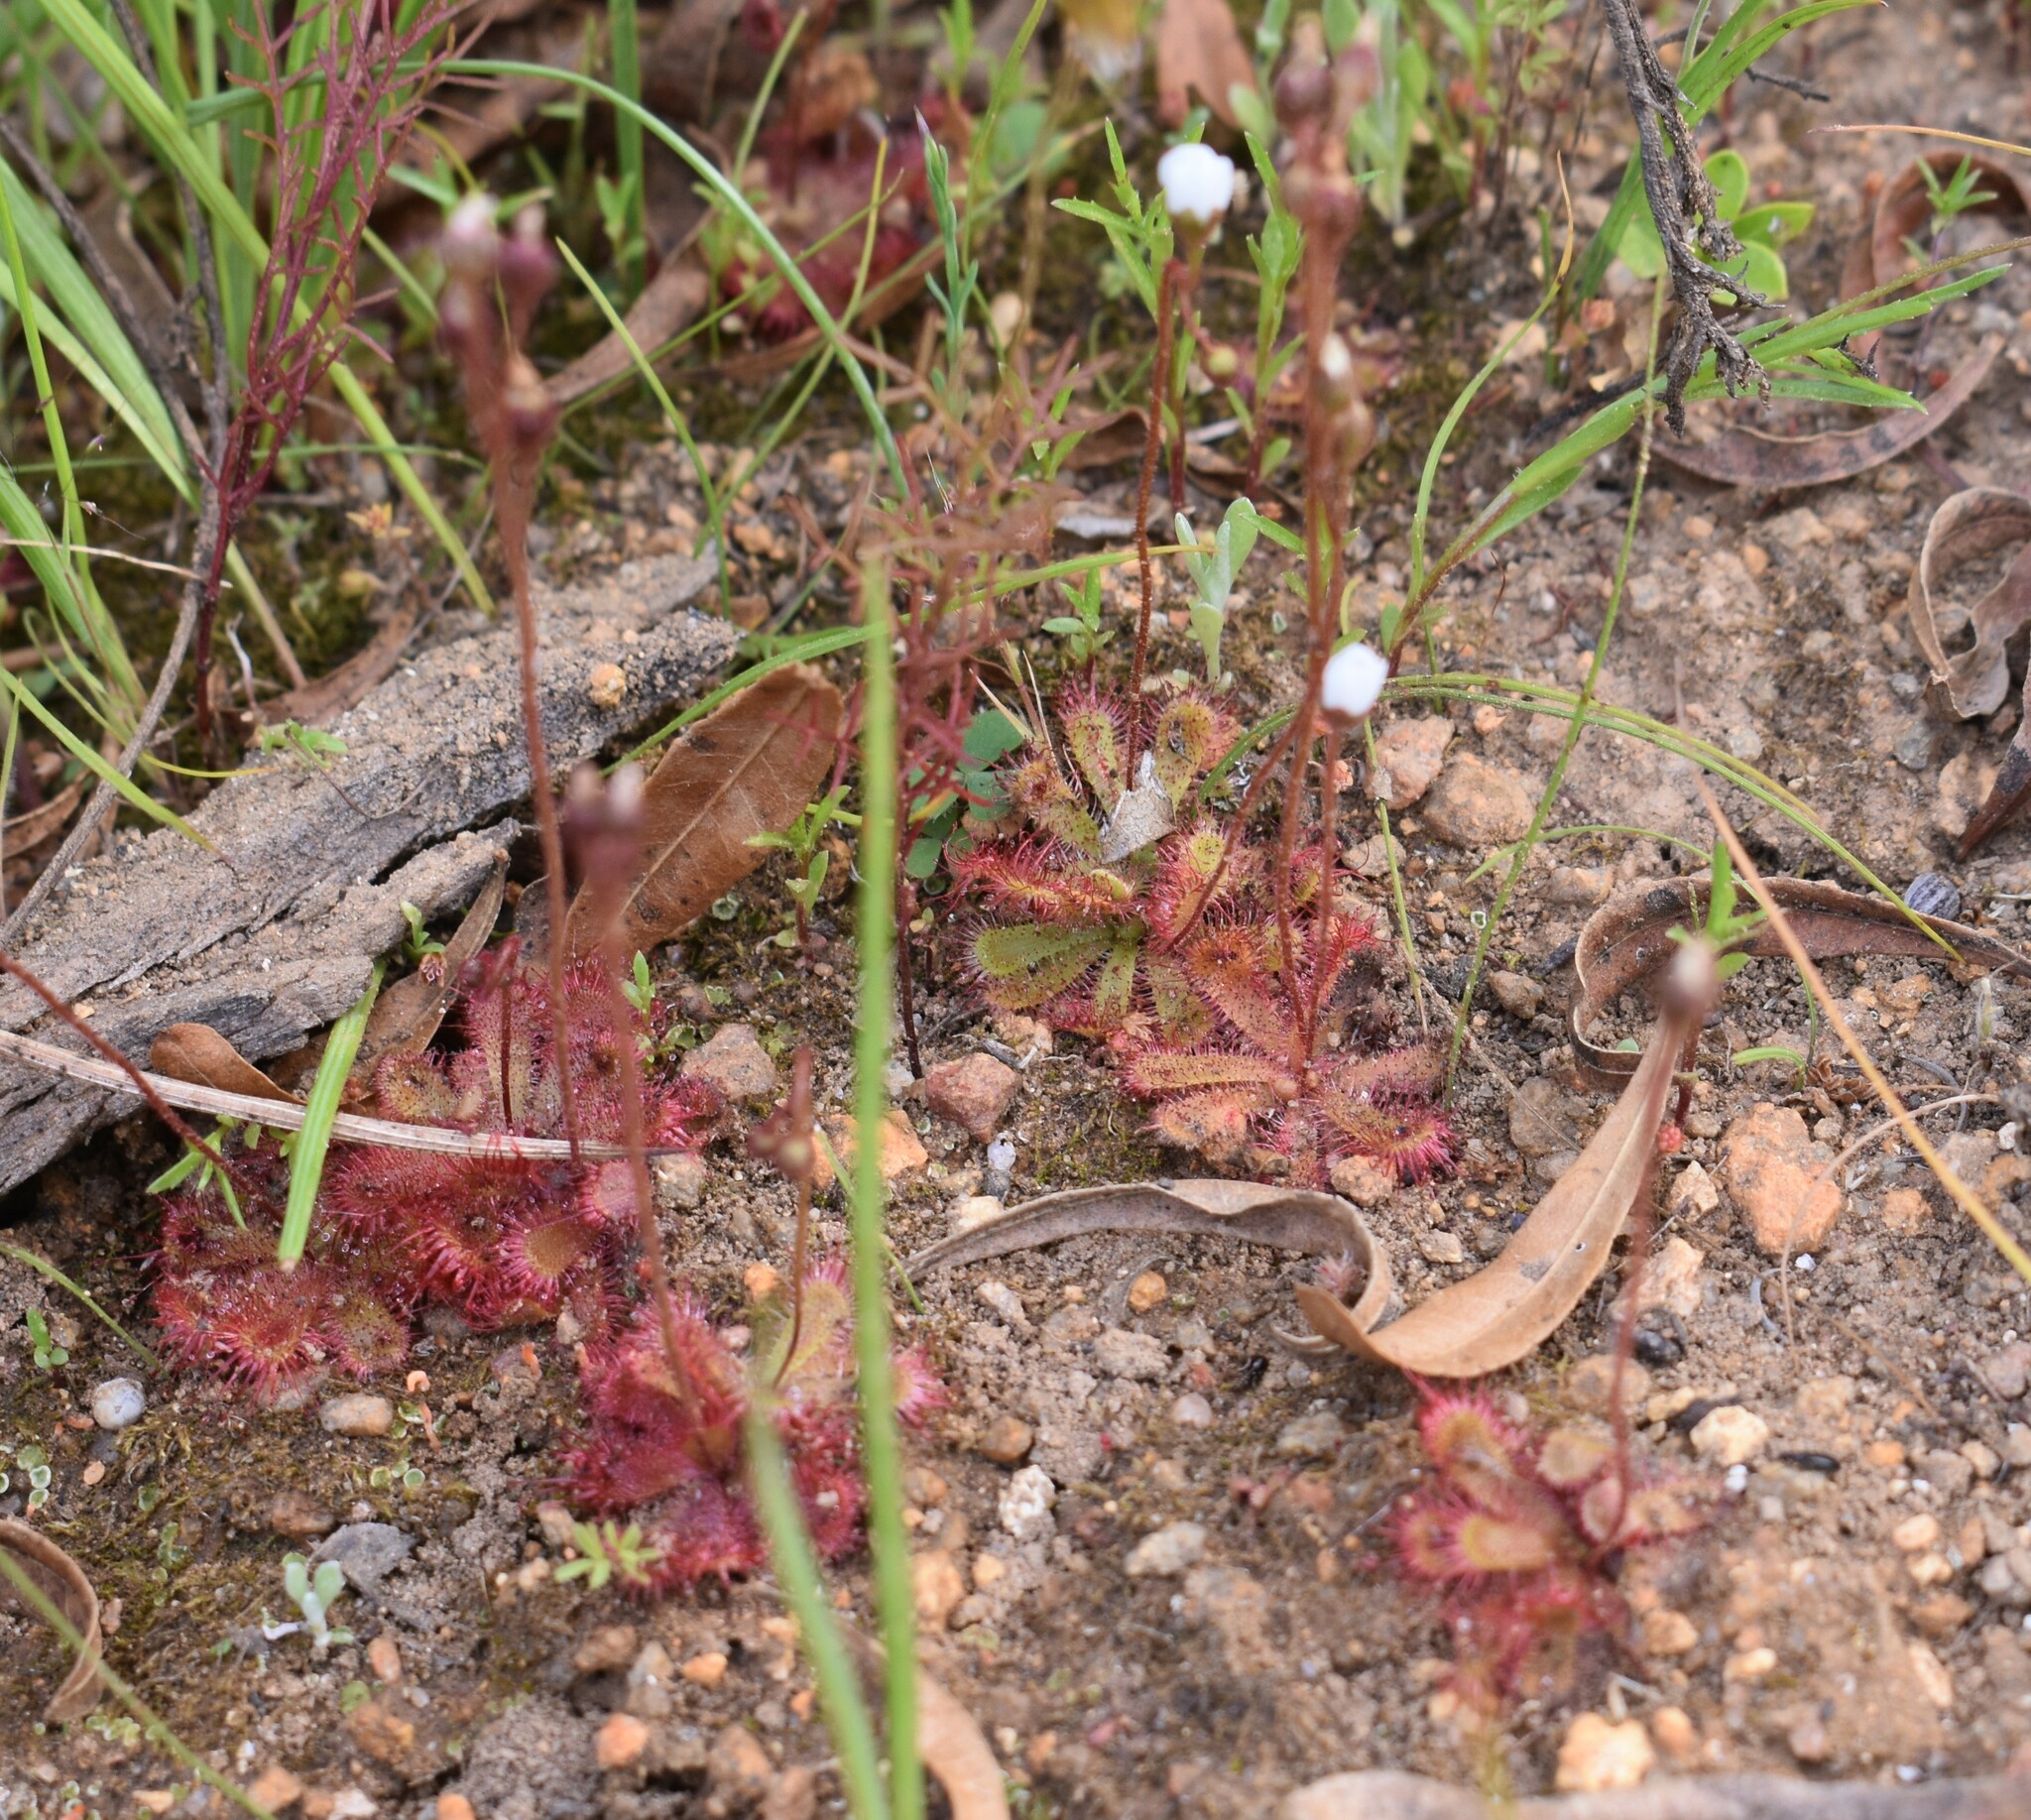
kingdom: Plantae
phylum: Tracheophyta
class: Magnoliopsida
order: Caryophyllales
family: Droseraceae
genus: Drosera
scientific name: Drosera trinervia
